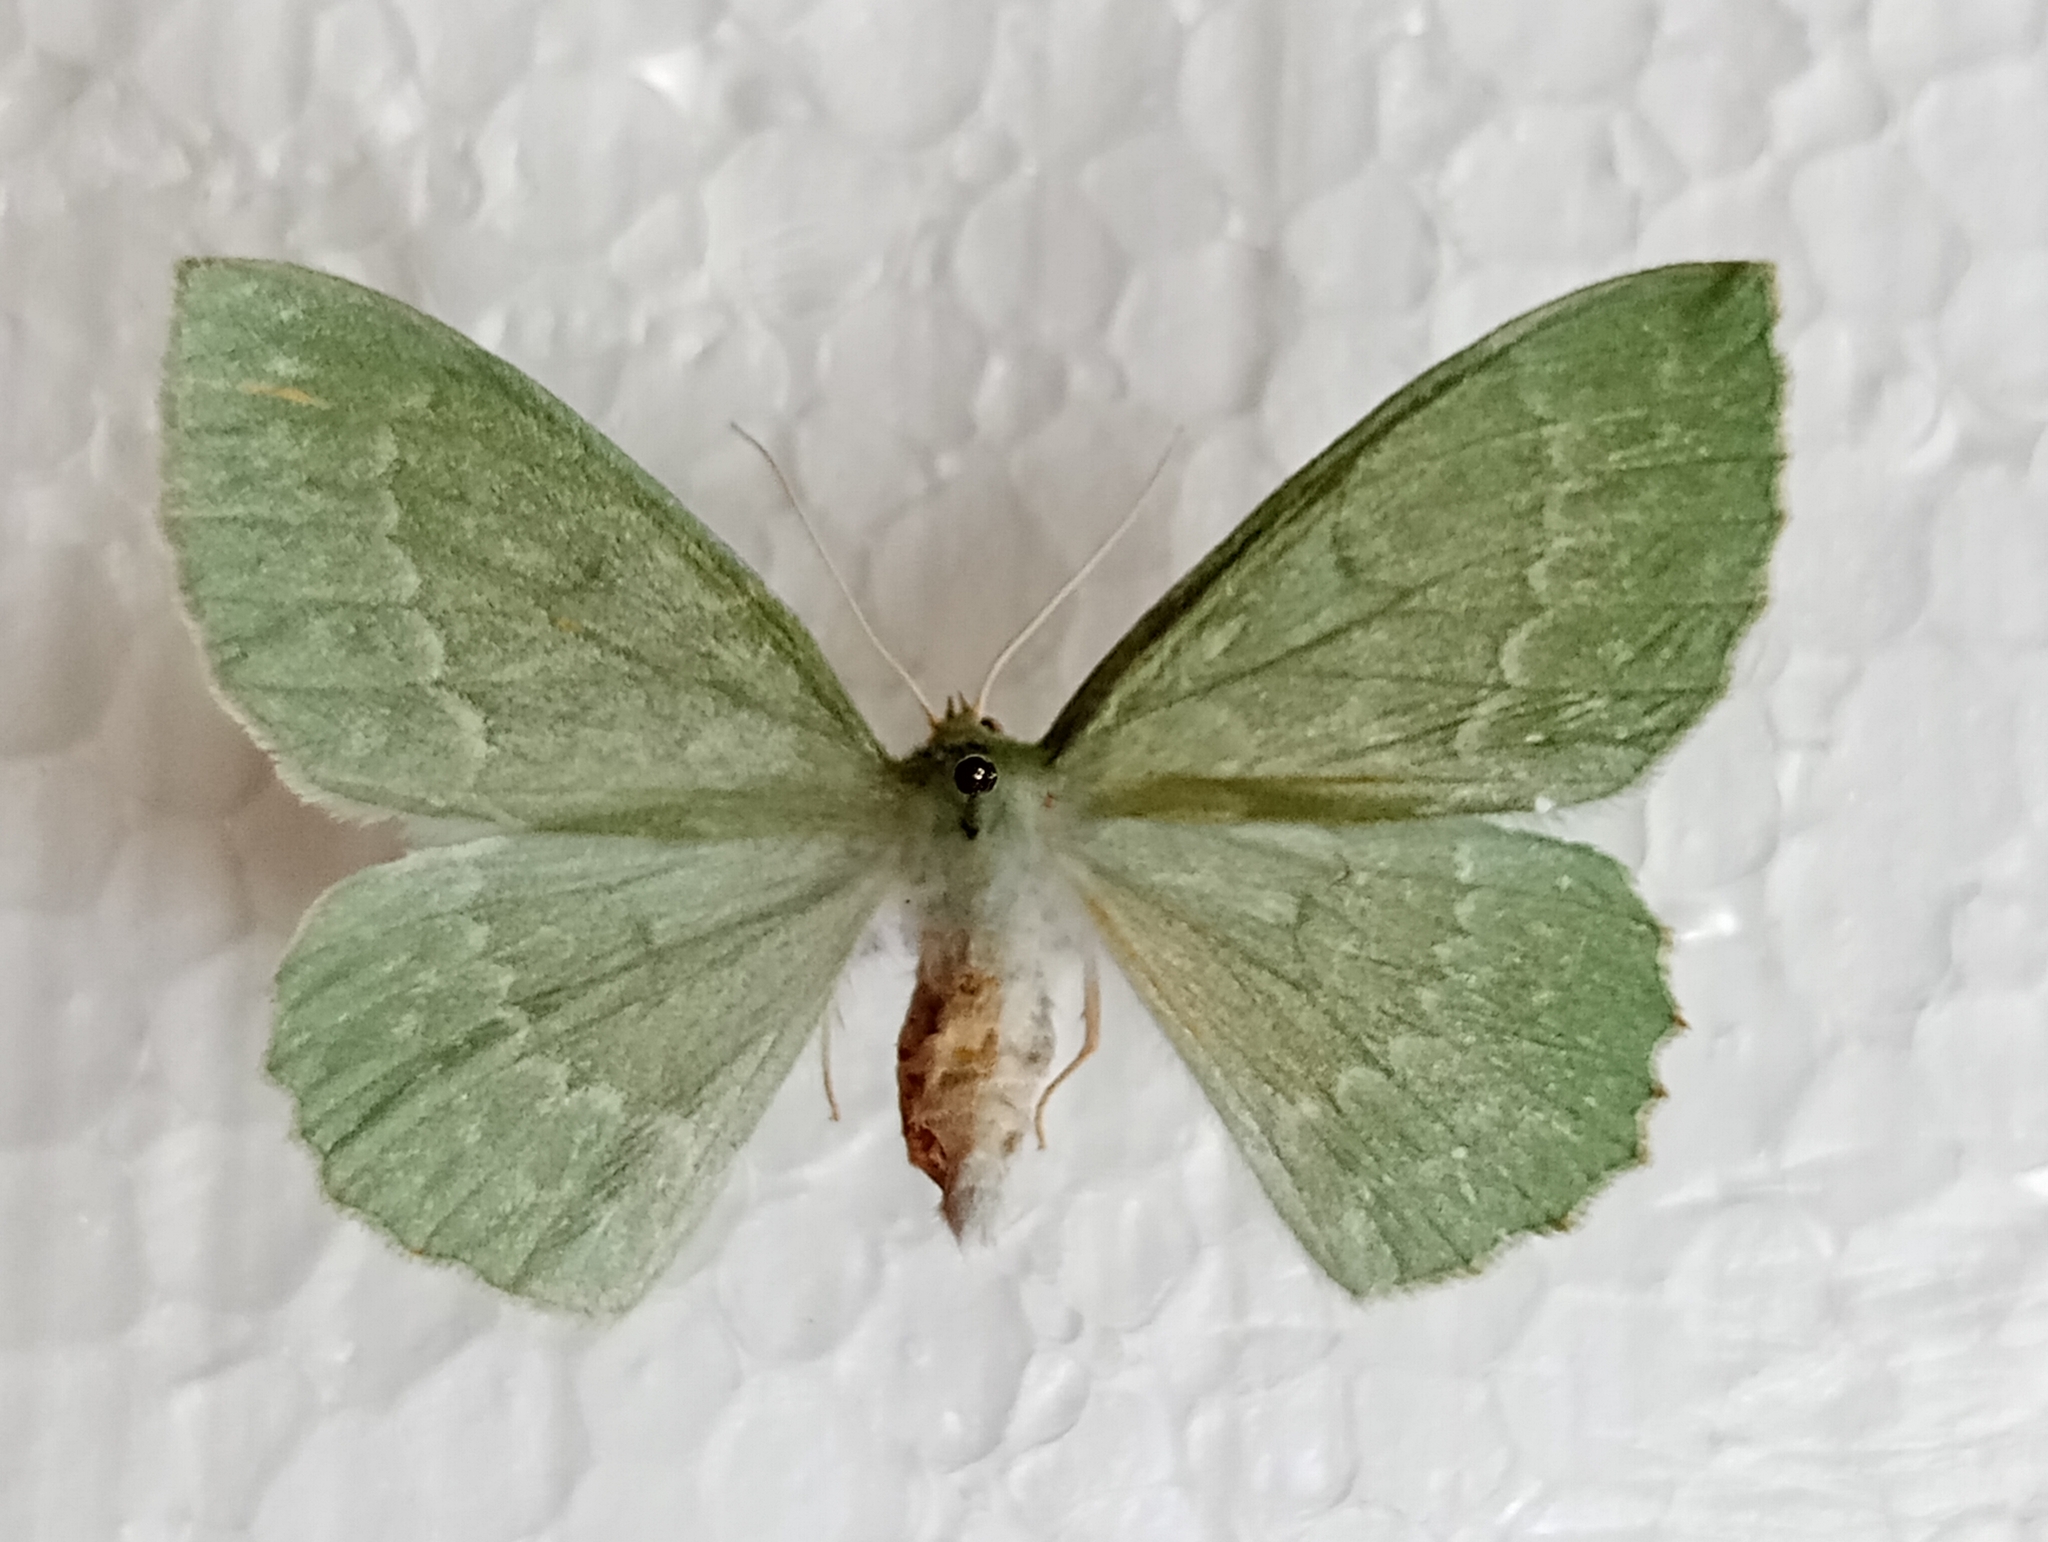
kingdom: Animalia
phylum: Arthropoda
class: Insecta
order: Lepidoptera
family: Geometridae
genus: Geometra
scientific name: Geometra papilionaria
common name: Large emerald
